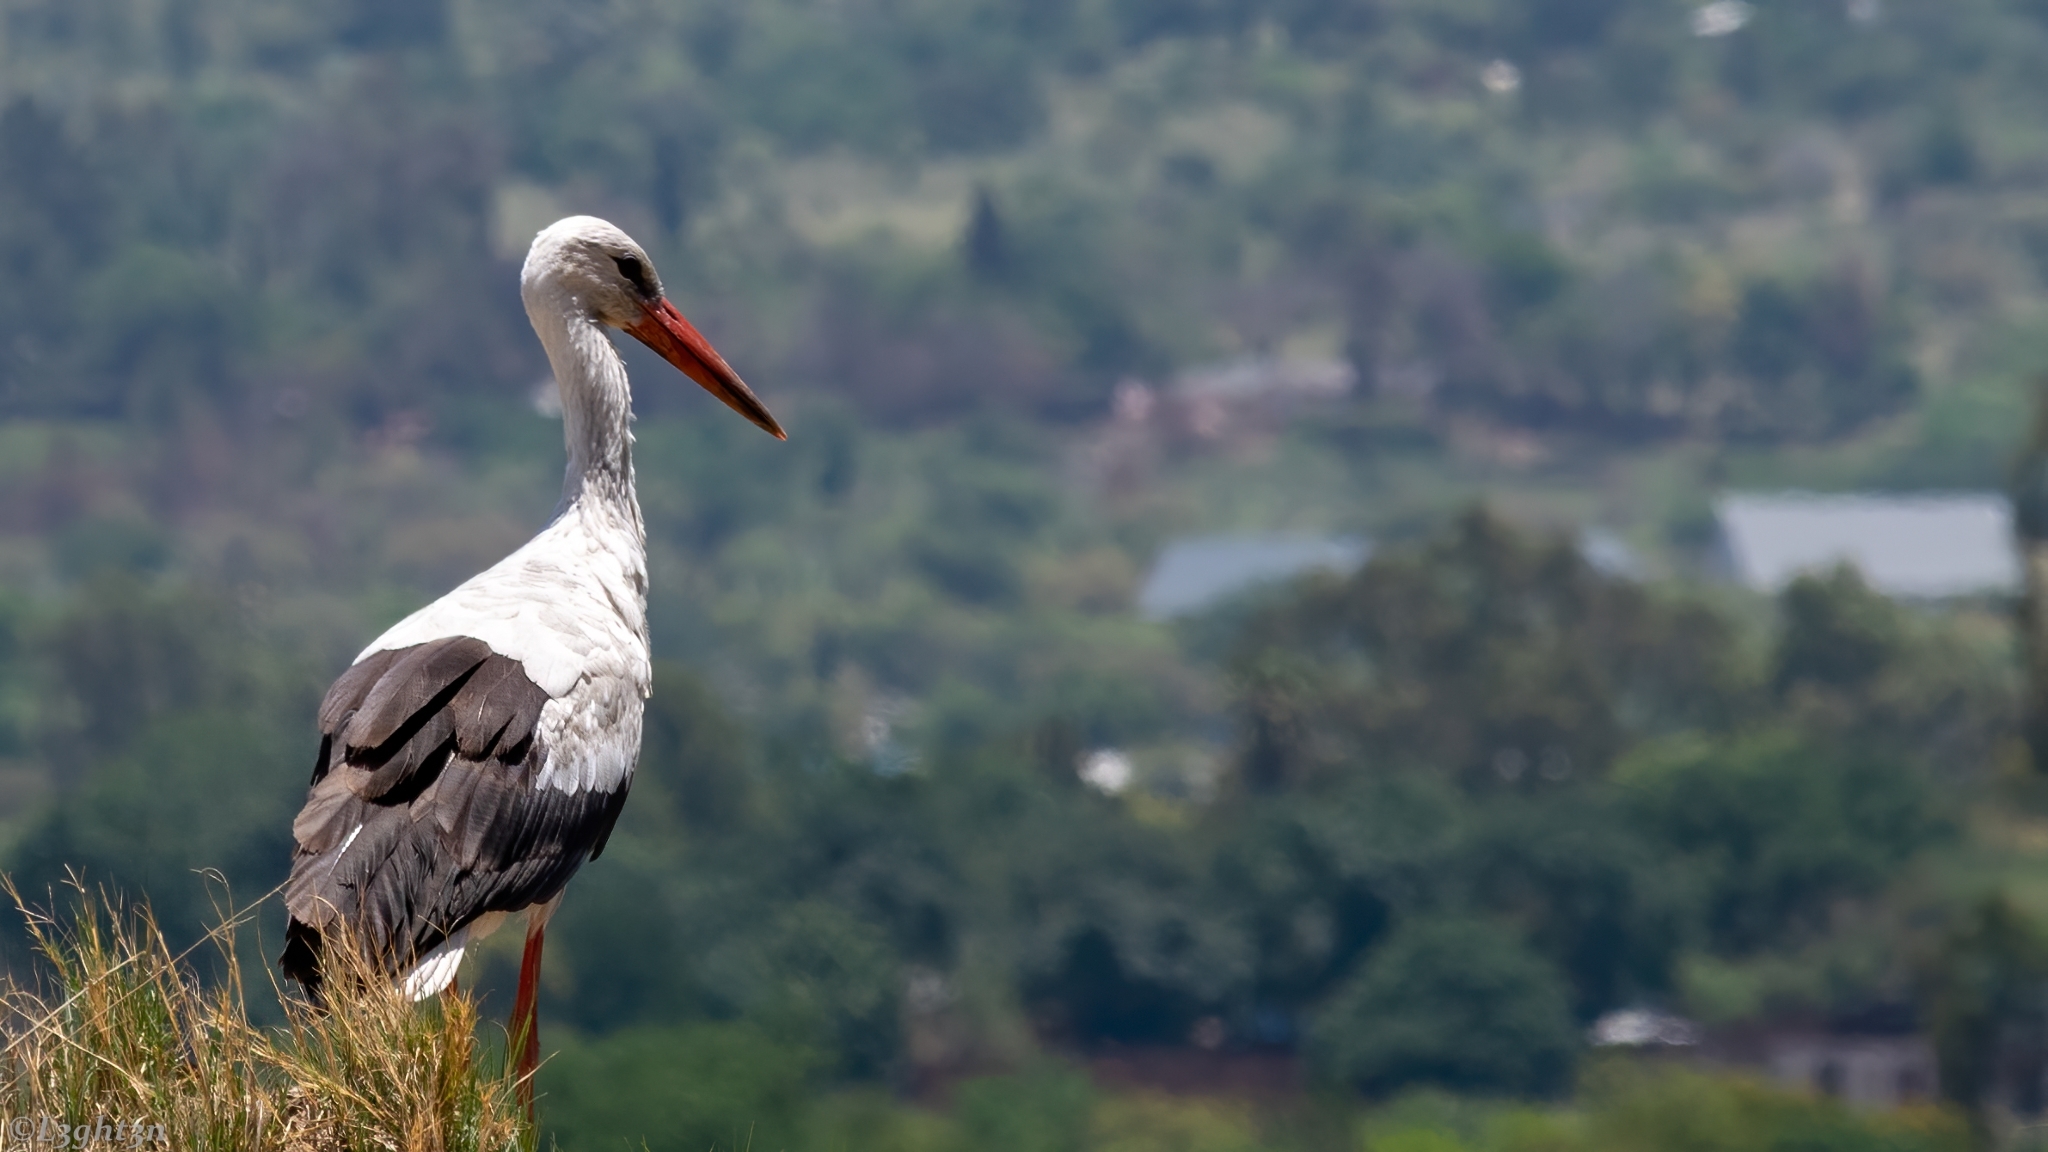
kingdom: Animalia
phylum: Chordata
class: Aves
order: Ciconiiformes
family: Ciconiidae
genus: Ciconia
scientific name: Ciconia ciconia
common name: White stork
